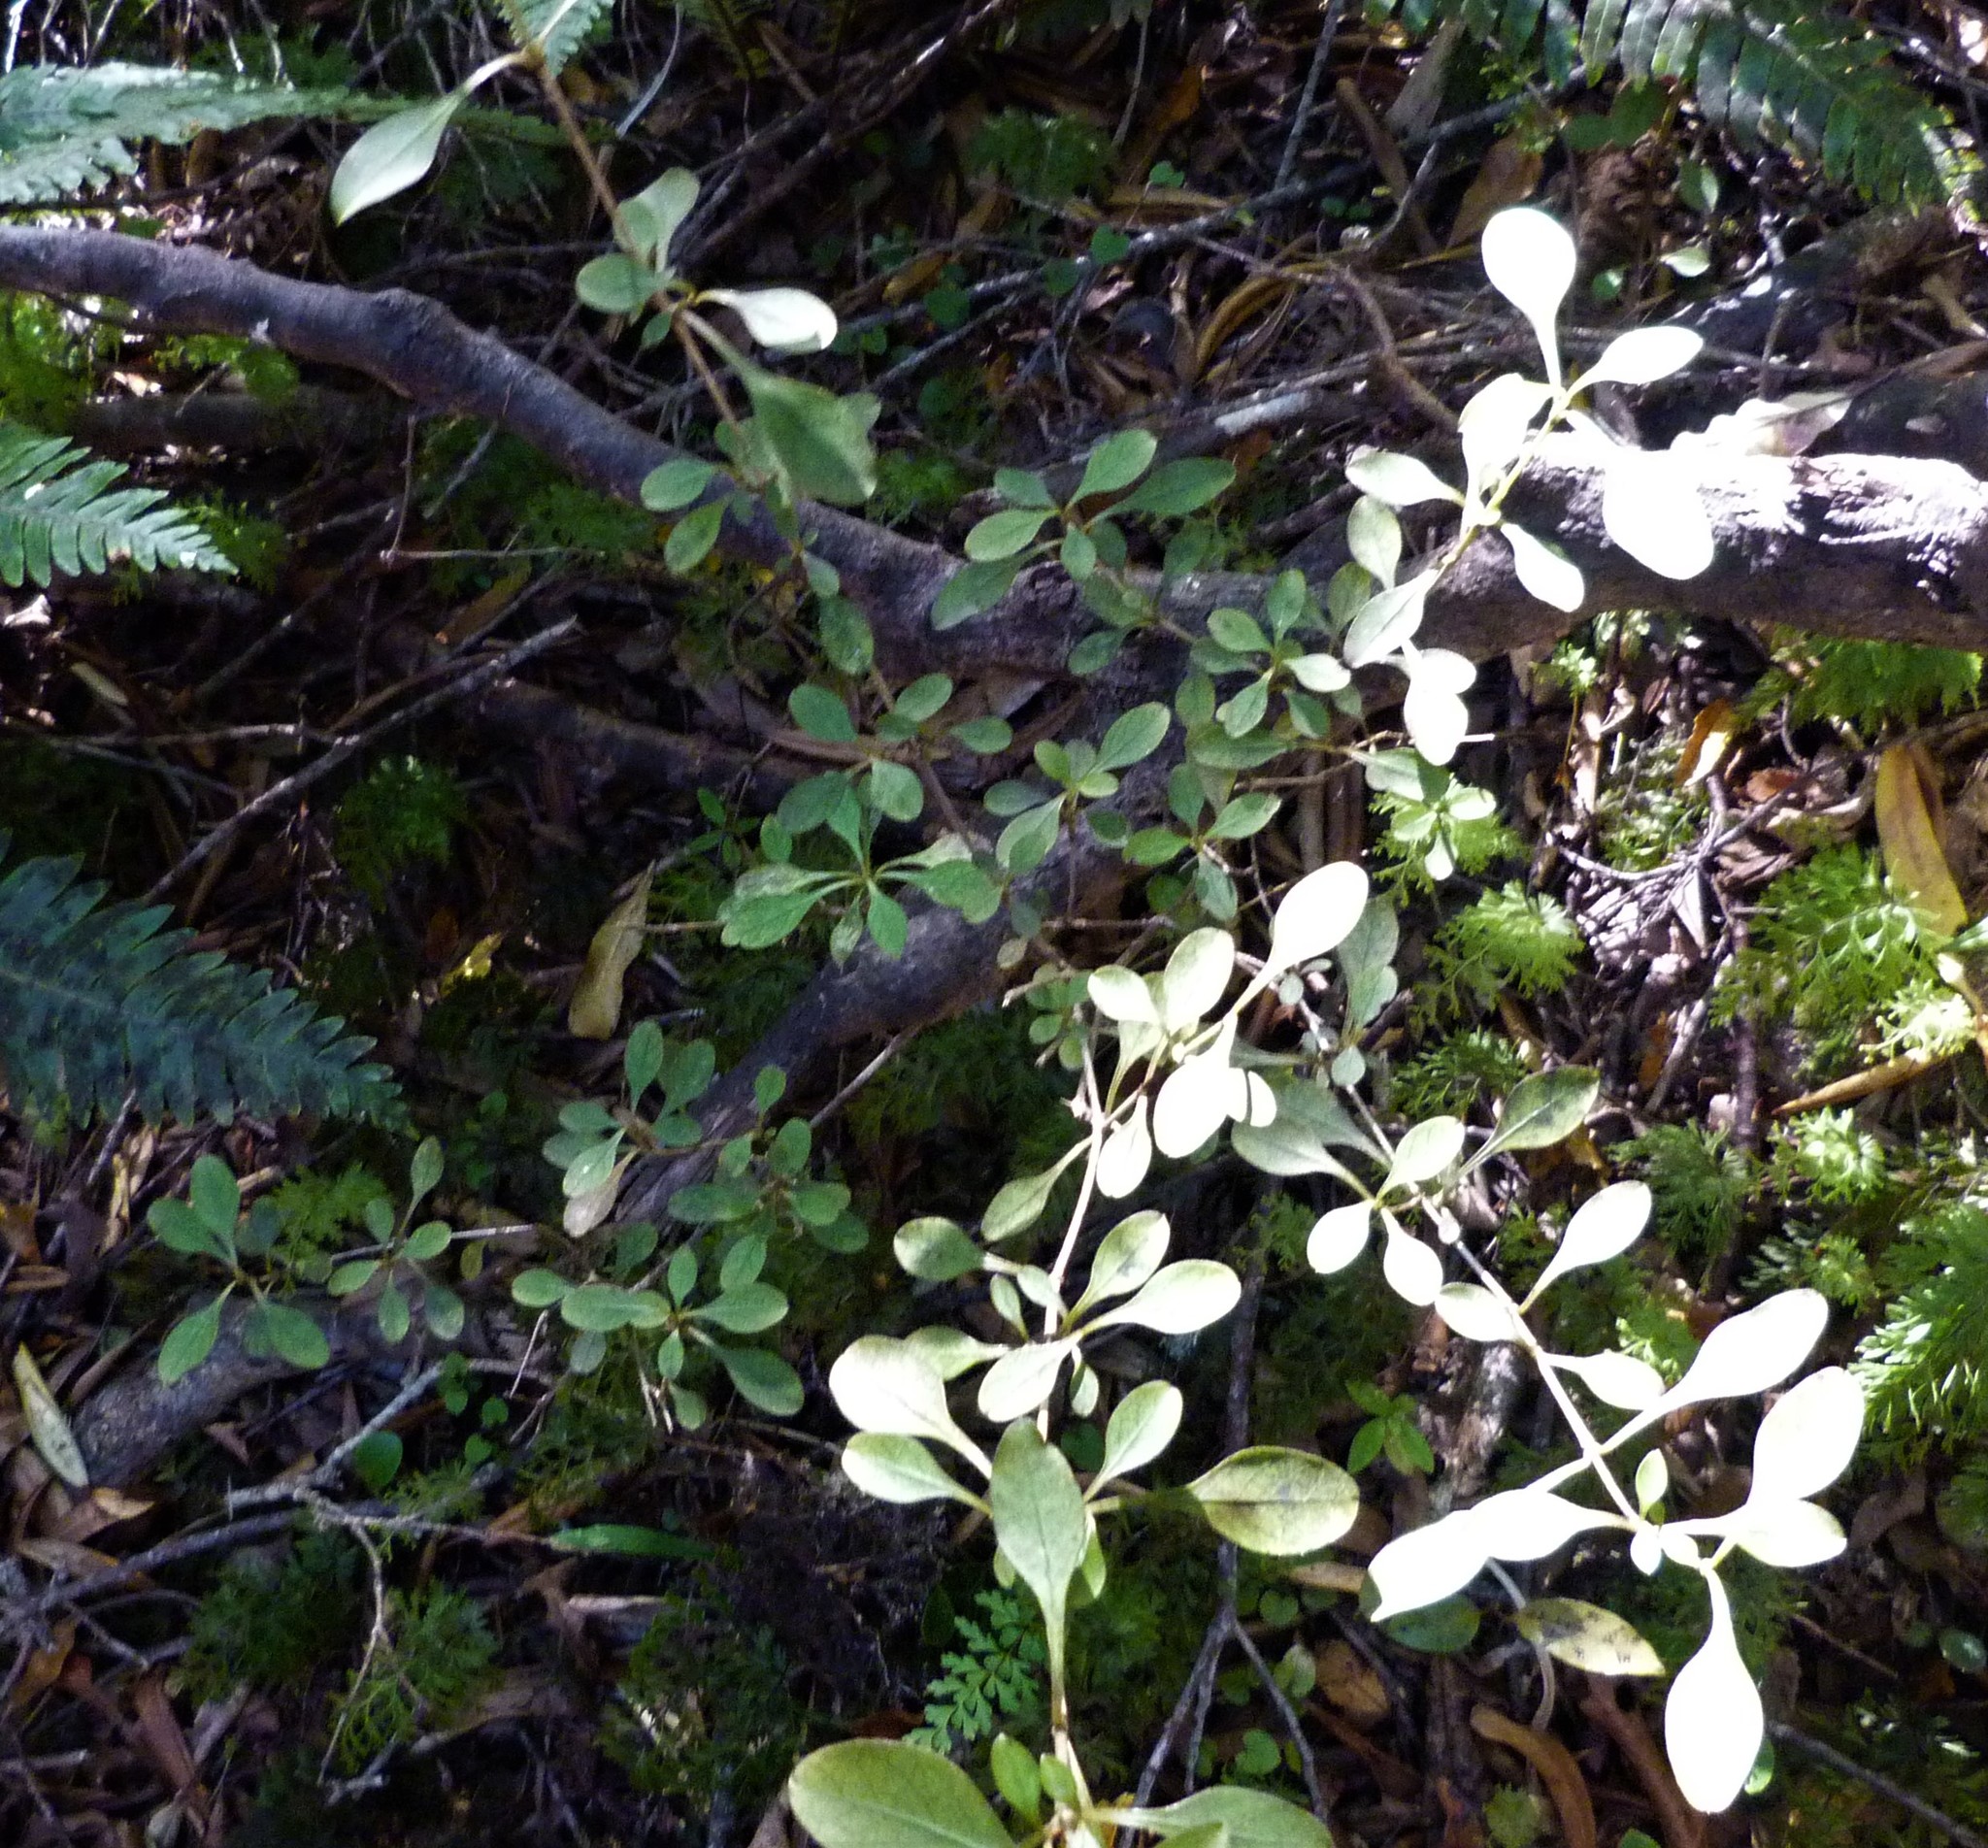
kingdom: Plantae
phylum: Tracheophyta
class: Magnoliopsida
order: Gentianales
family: Rubiaceae
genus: Coprosma
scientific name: Coprosma foetidissima
